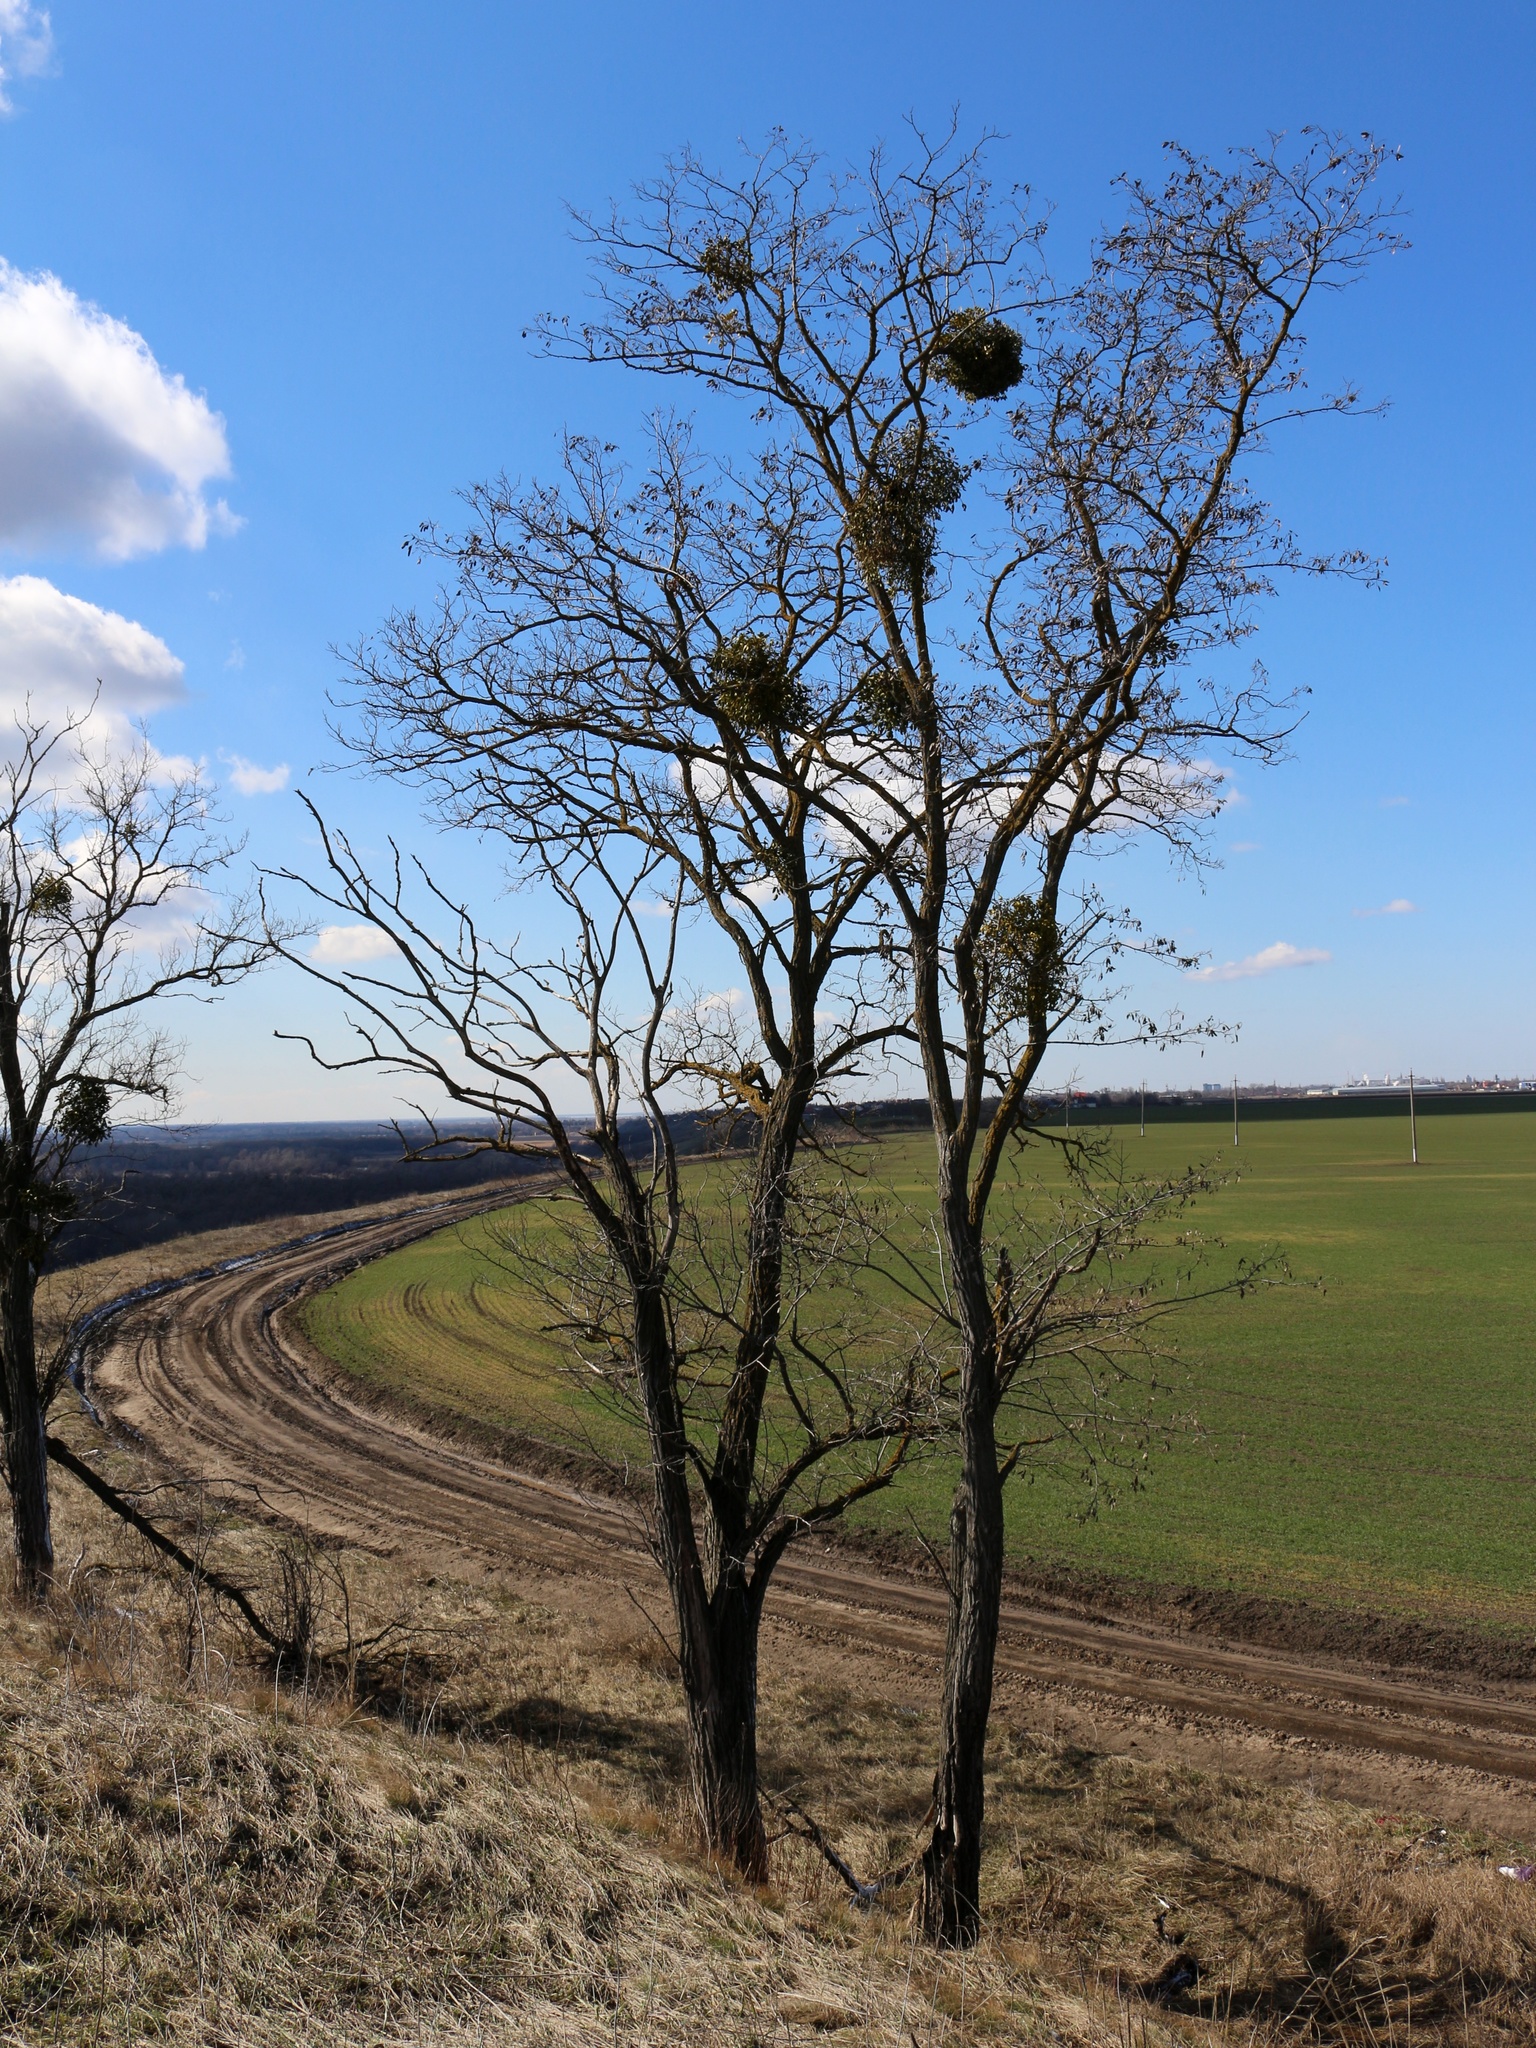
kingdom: Plantae
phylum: Tracheophyta
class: Magnoliopsida
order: Santalales
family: Viscaceae
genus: Viscum
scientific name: Viscum album
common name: Mistletoe
